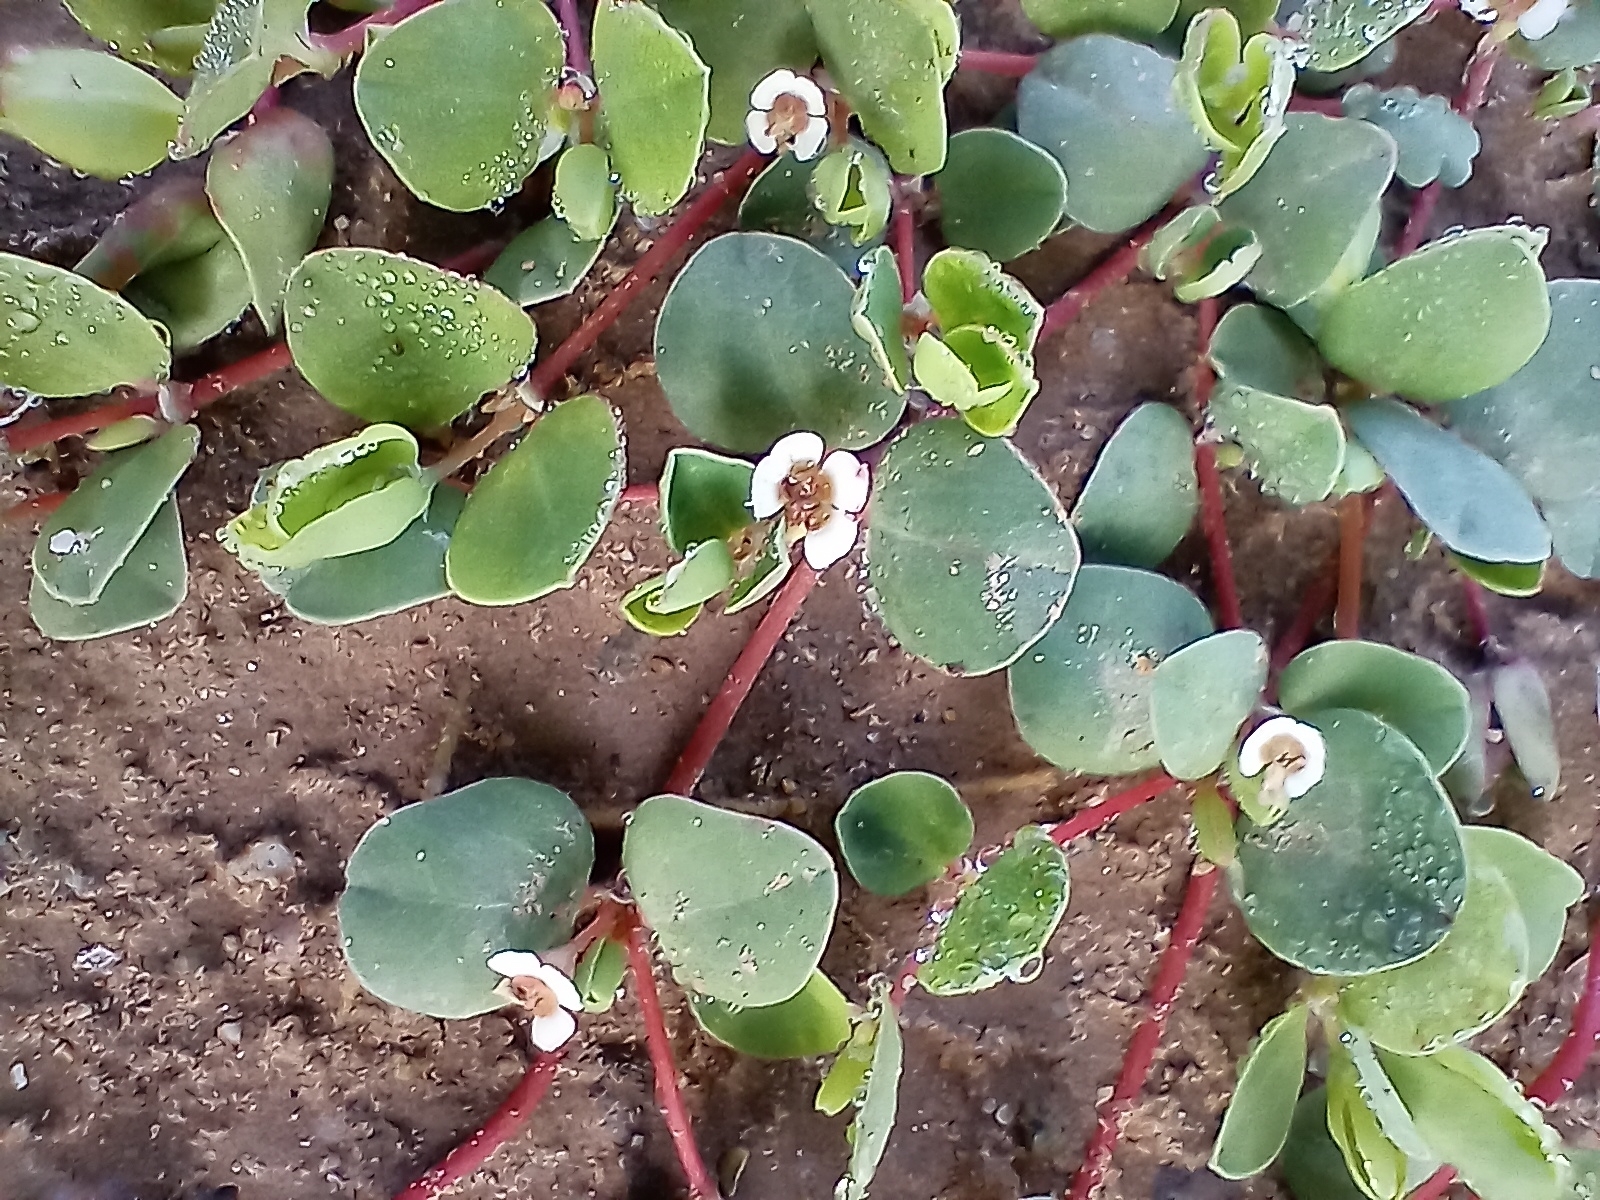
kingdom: Plantae
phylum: Tracheophyta
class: Magnoliopsida
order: Malpighiales
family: Euphorbiaceae
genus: Euphorbia
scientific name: Euphorbia albomarginata
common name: Whitemargin sandmat
